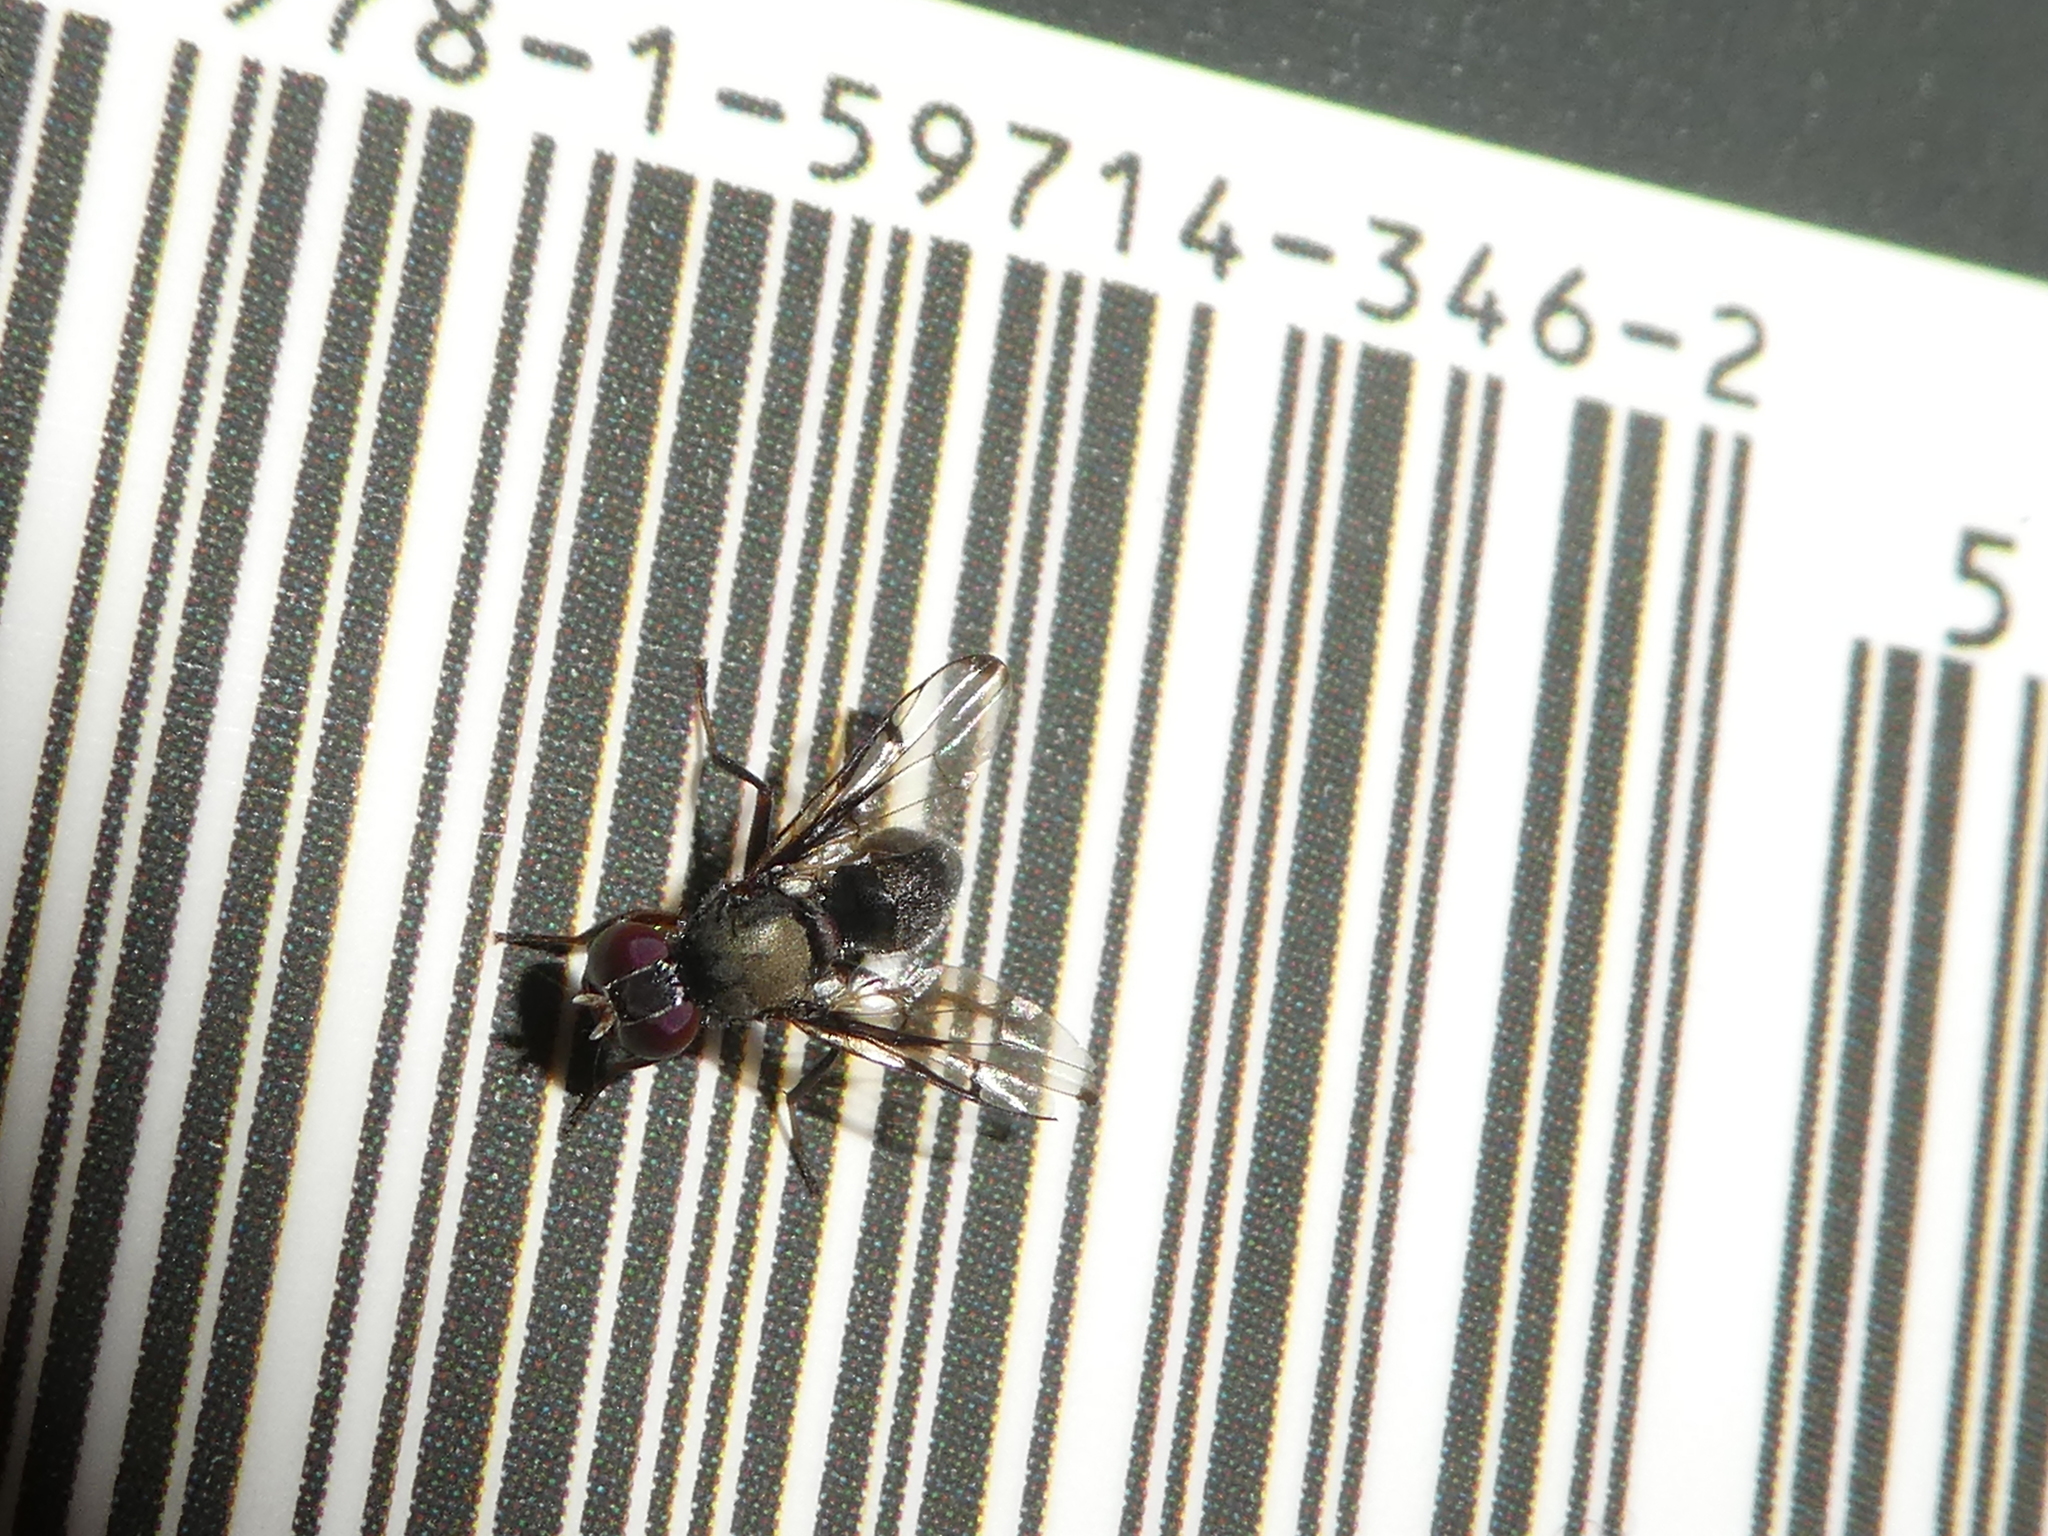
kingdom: Animalia
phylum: Arthropoda
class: Insecta
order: Diptera
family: Platystomatidae
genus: Pogonortalis
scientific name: Pogonortalis doclea
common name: Boatman fly
